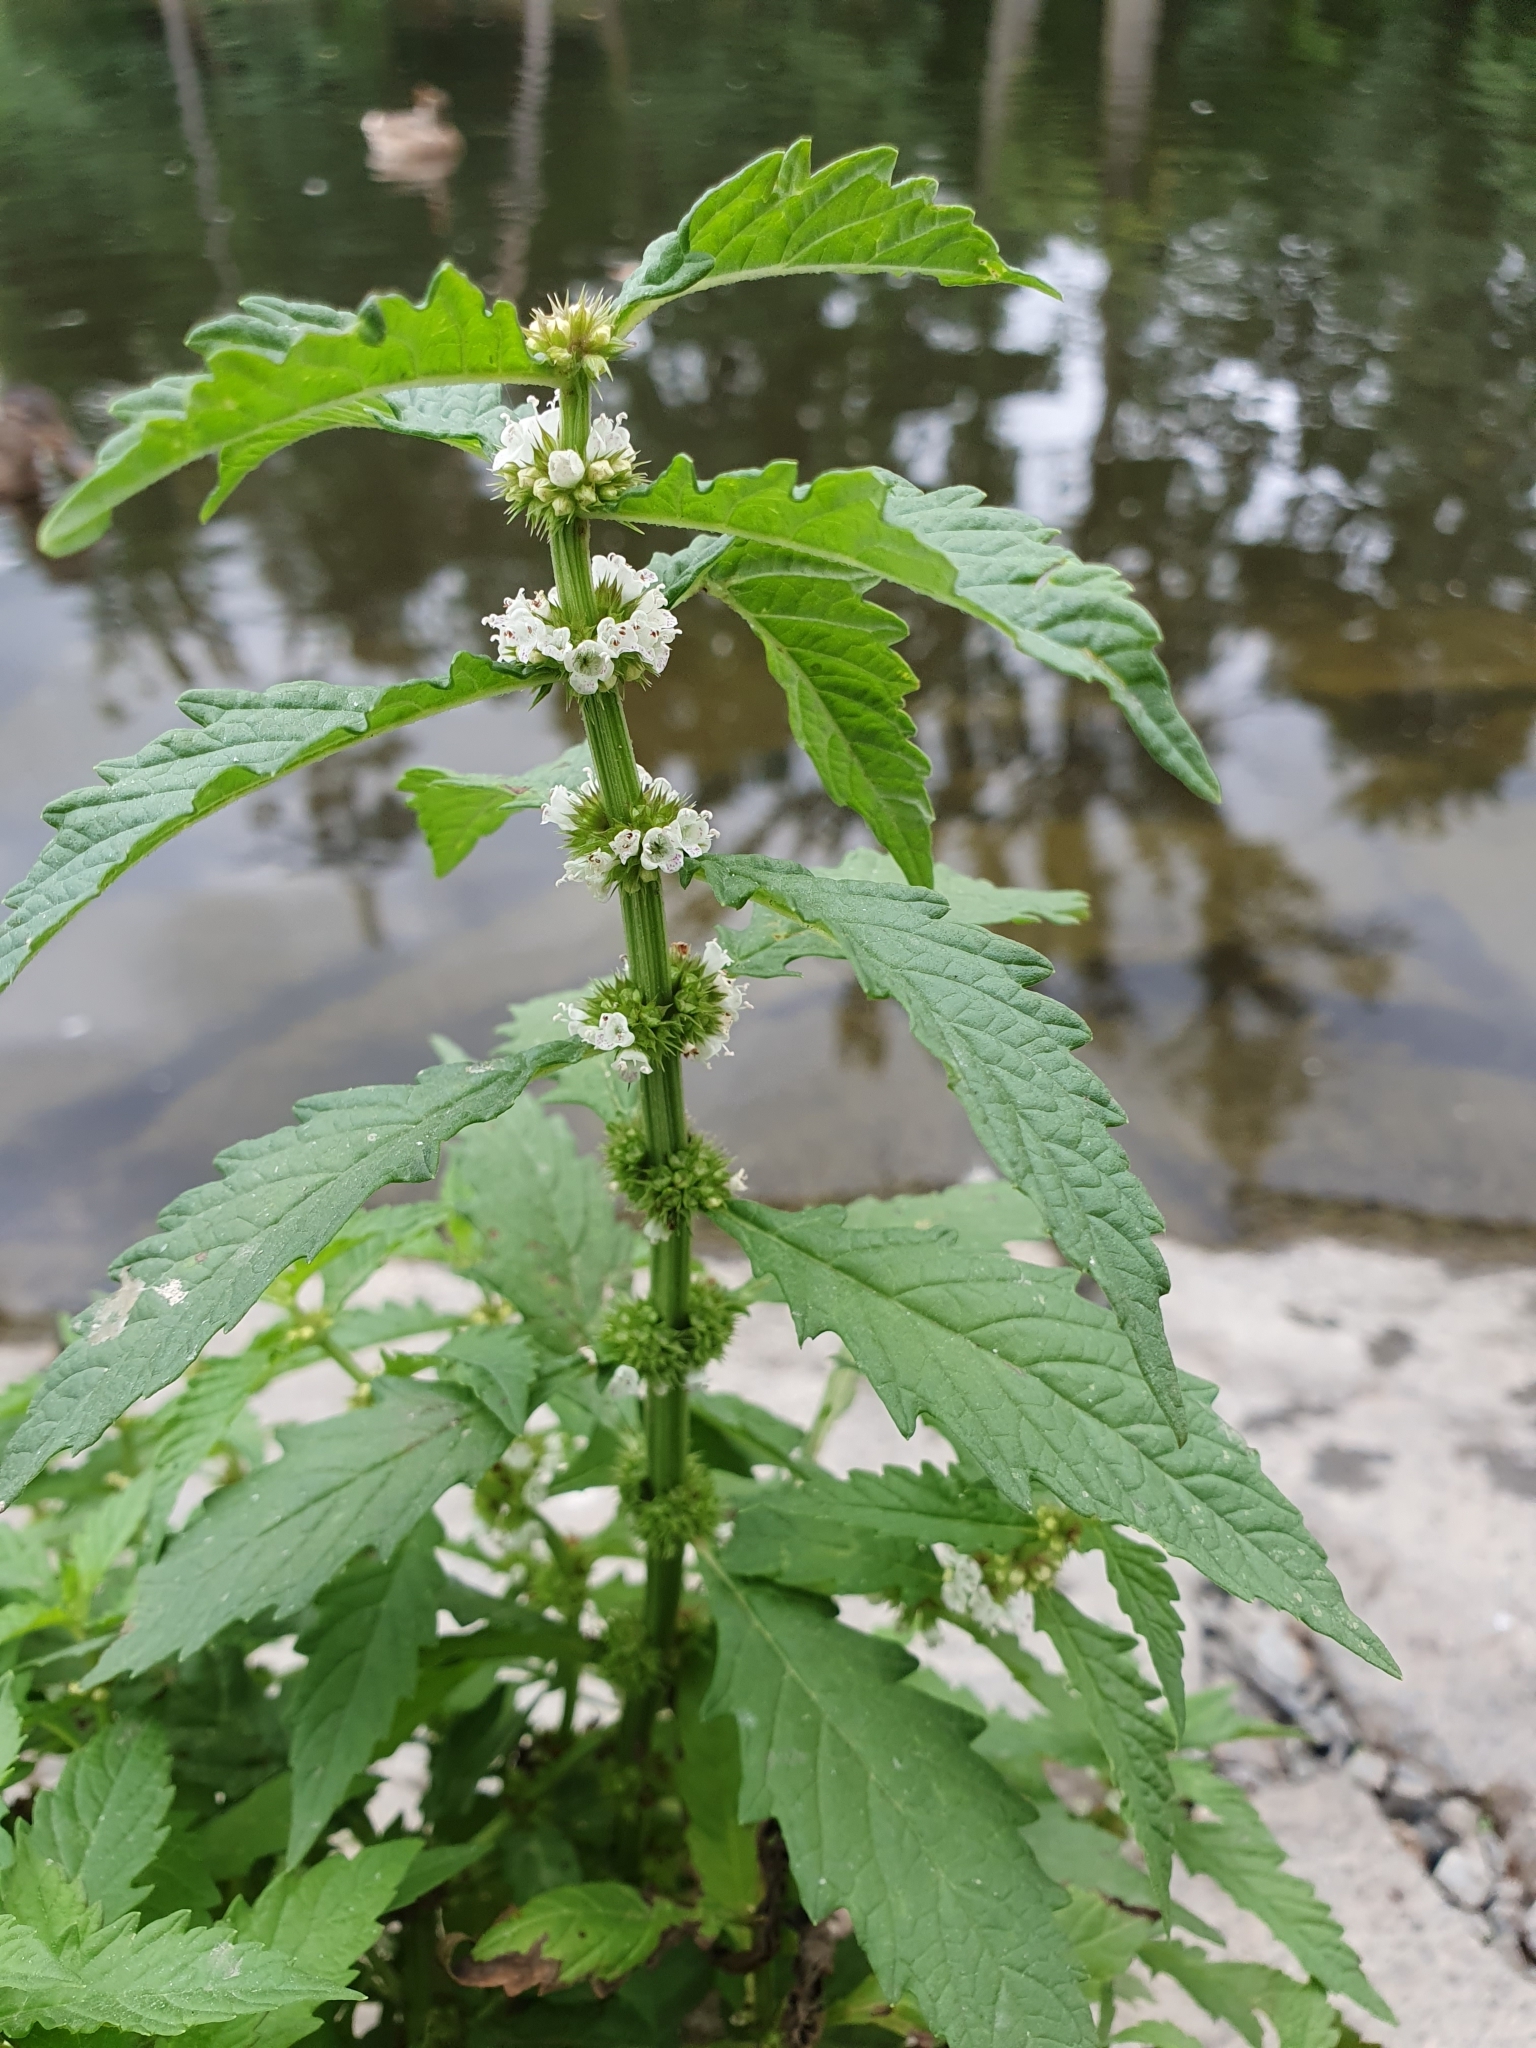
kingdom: Plantae
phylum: Tracheophyta
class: Magnoliopsida
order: Lamiales
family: Lamiaceae
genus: Lycopus
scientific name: Lycopus europaeus
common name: European bugleweed
